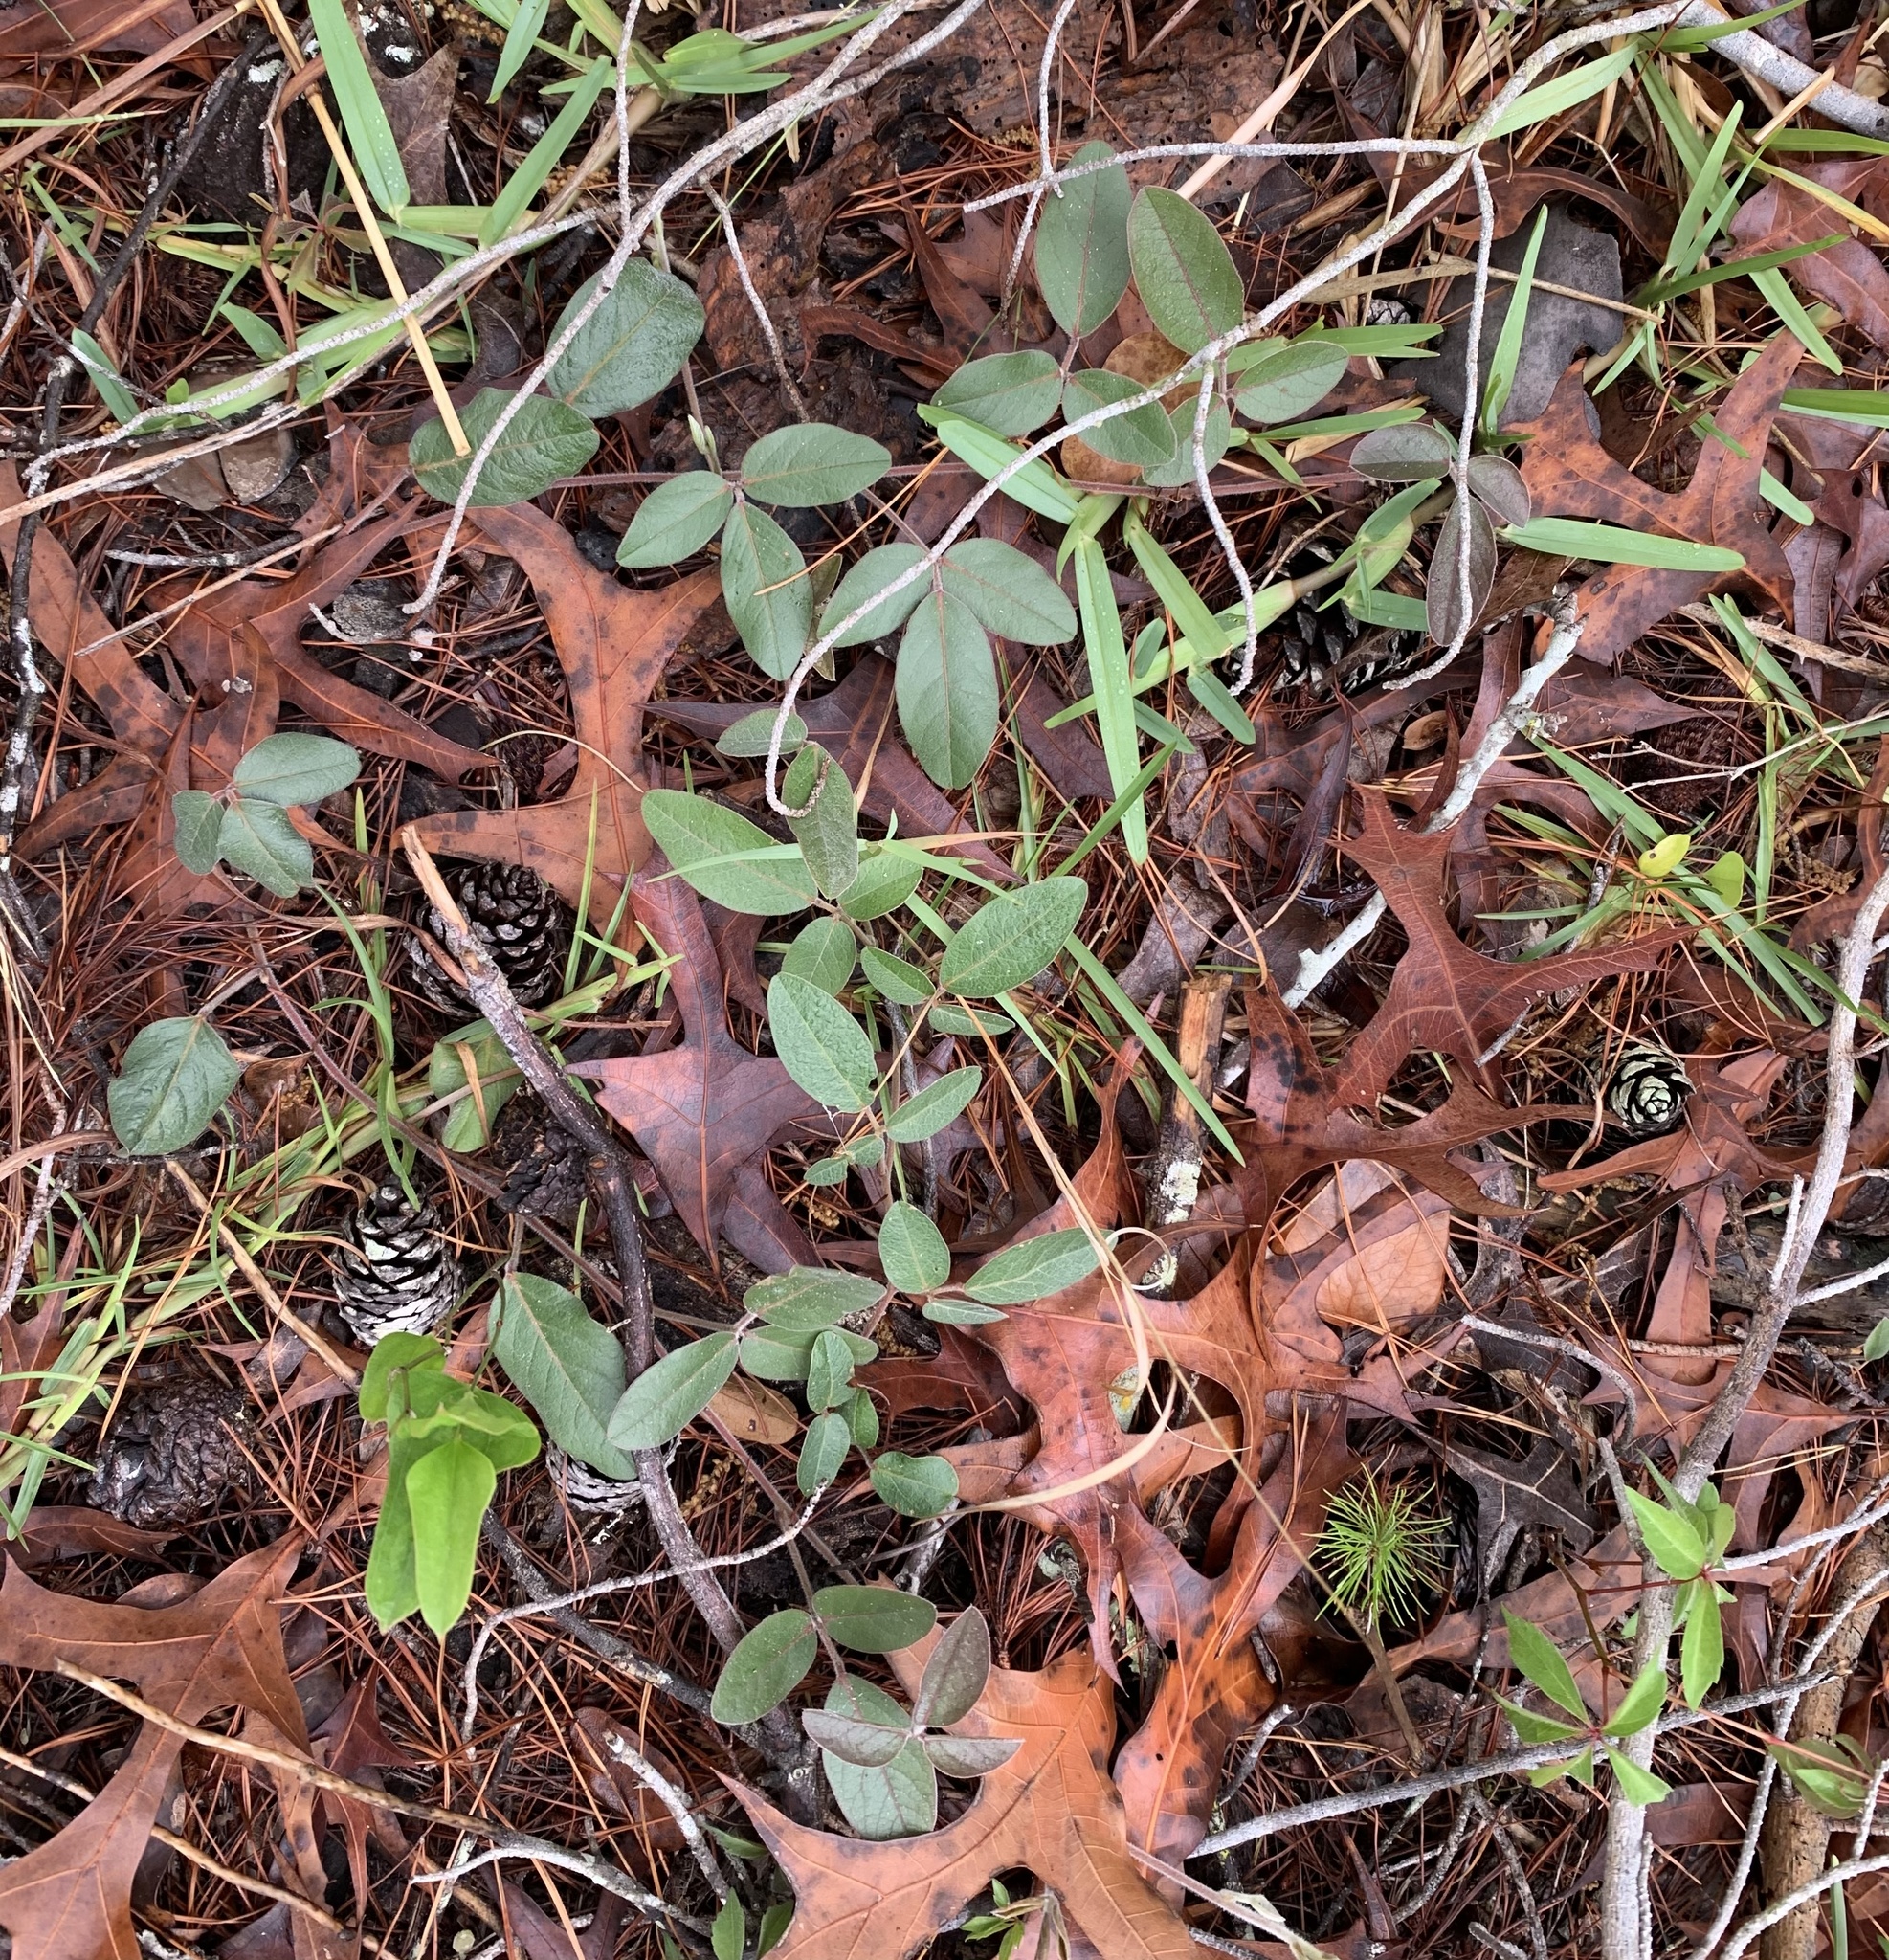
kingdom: Plantae
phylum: Tracheophyta
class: Magnoliopsida
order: Fabales
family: Fabaceae
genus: Galactia
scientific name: Galactia mollis
